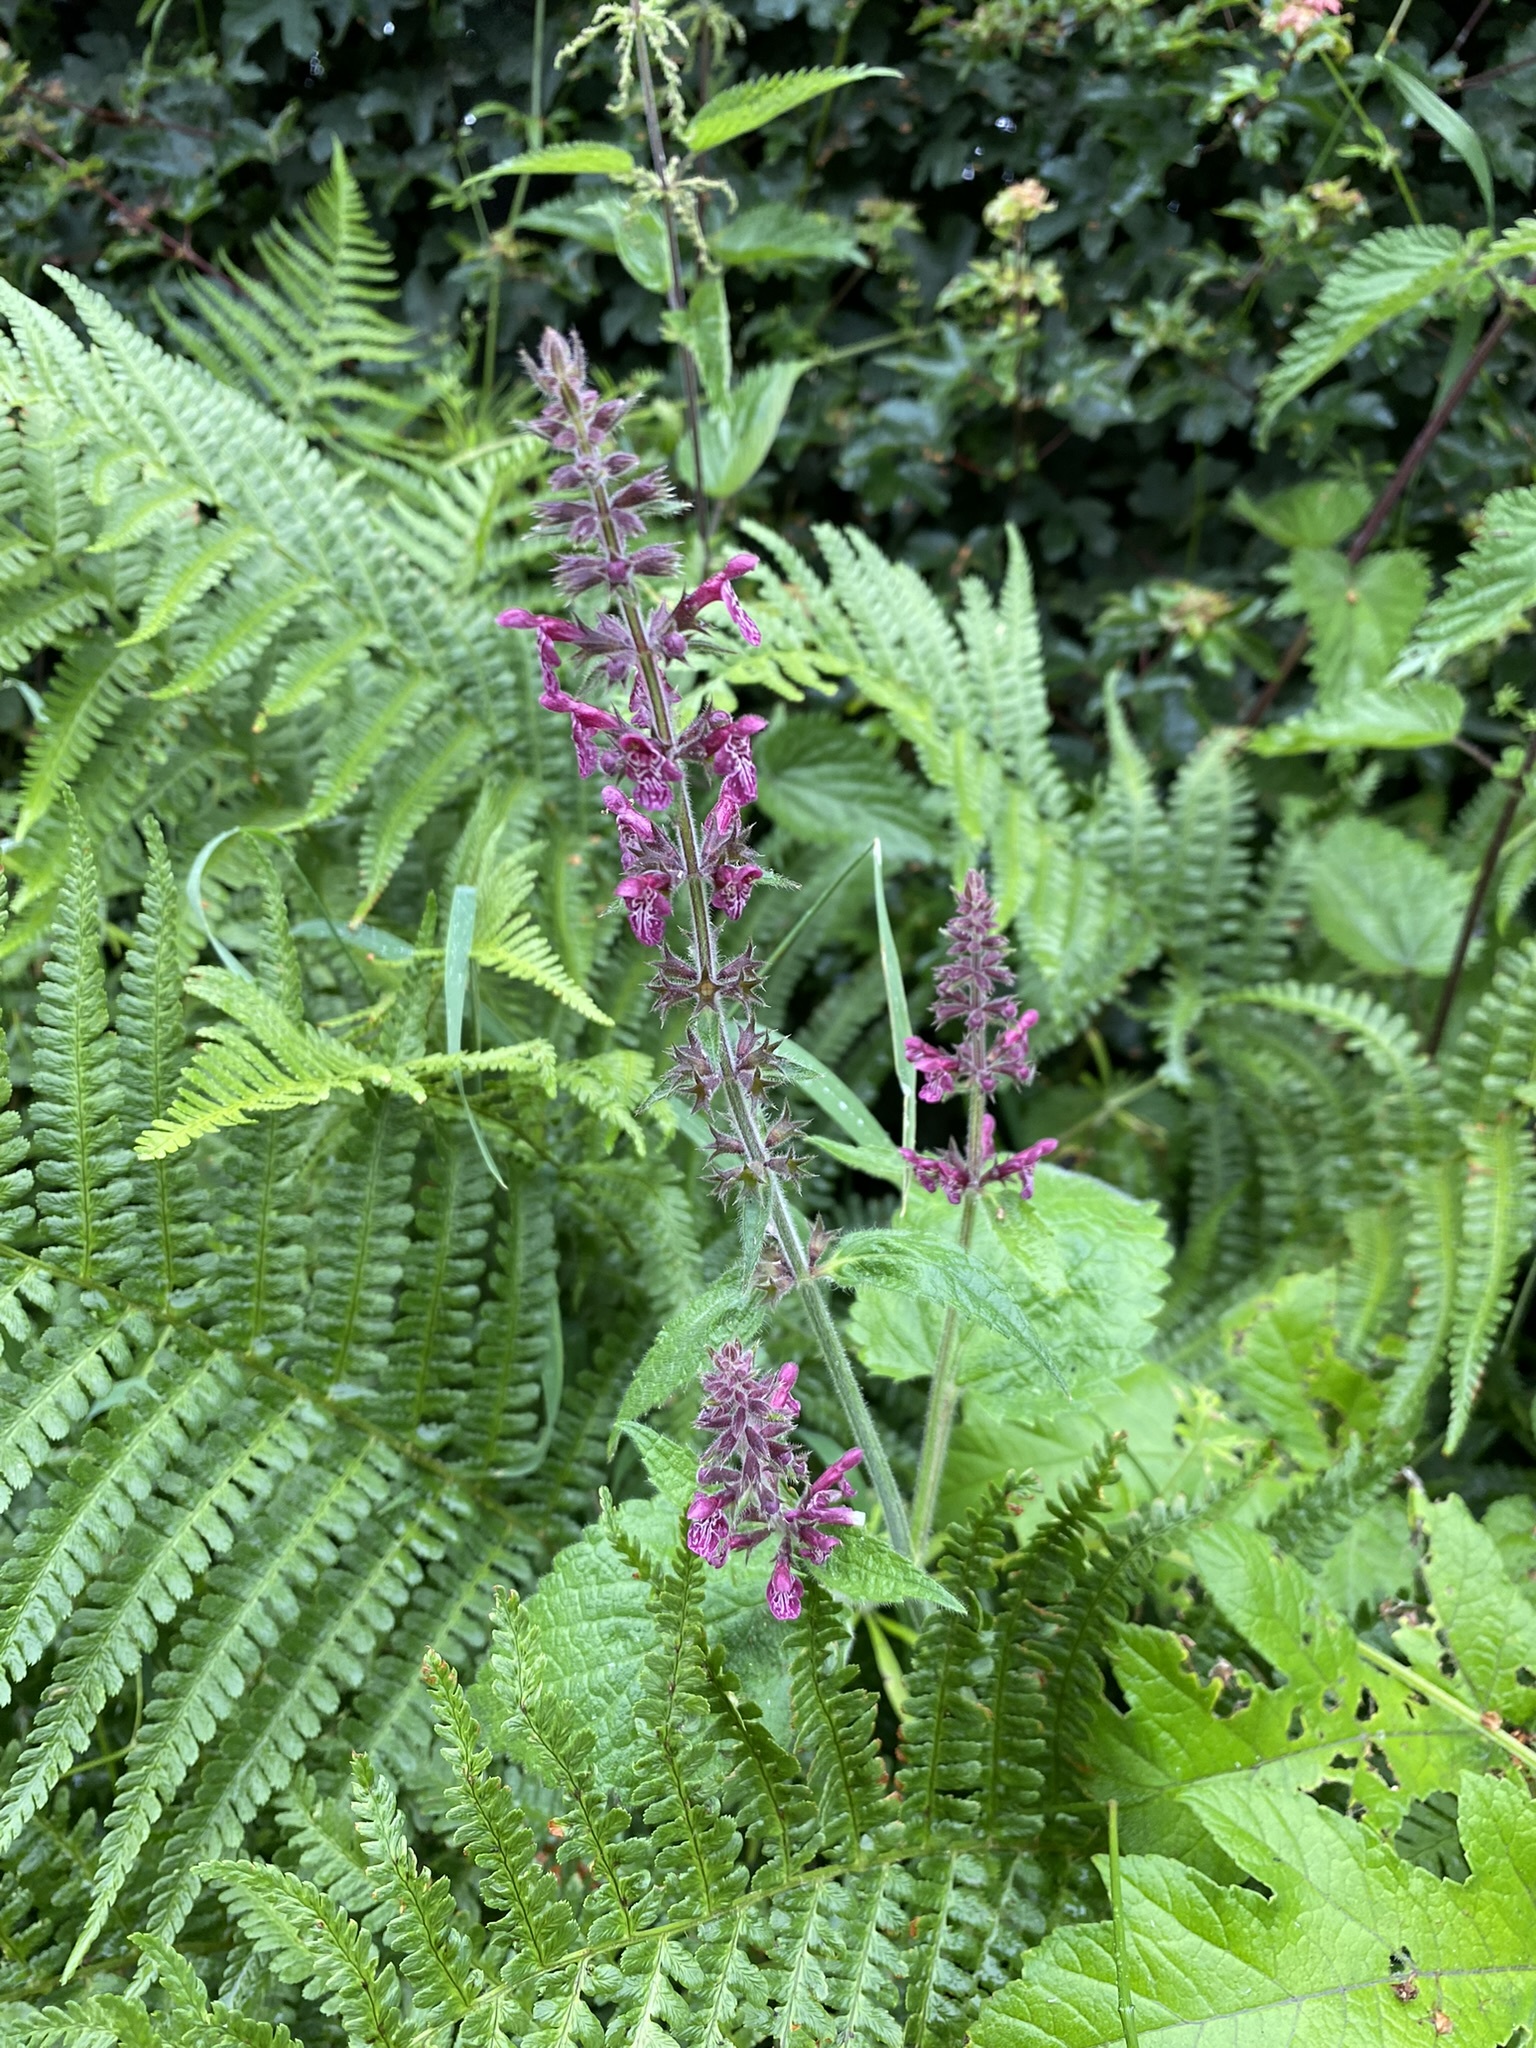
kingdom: Plantae
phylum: Tracheophyta
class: Magnoliopsida
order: Lamiales
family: Lamiaceae
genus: Stachys
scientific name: Stachys sylvatica
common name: Hedge woundwort
